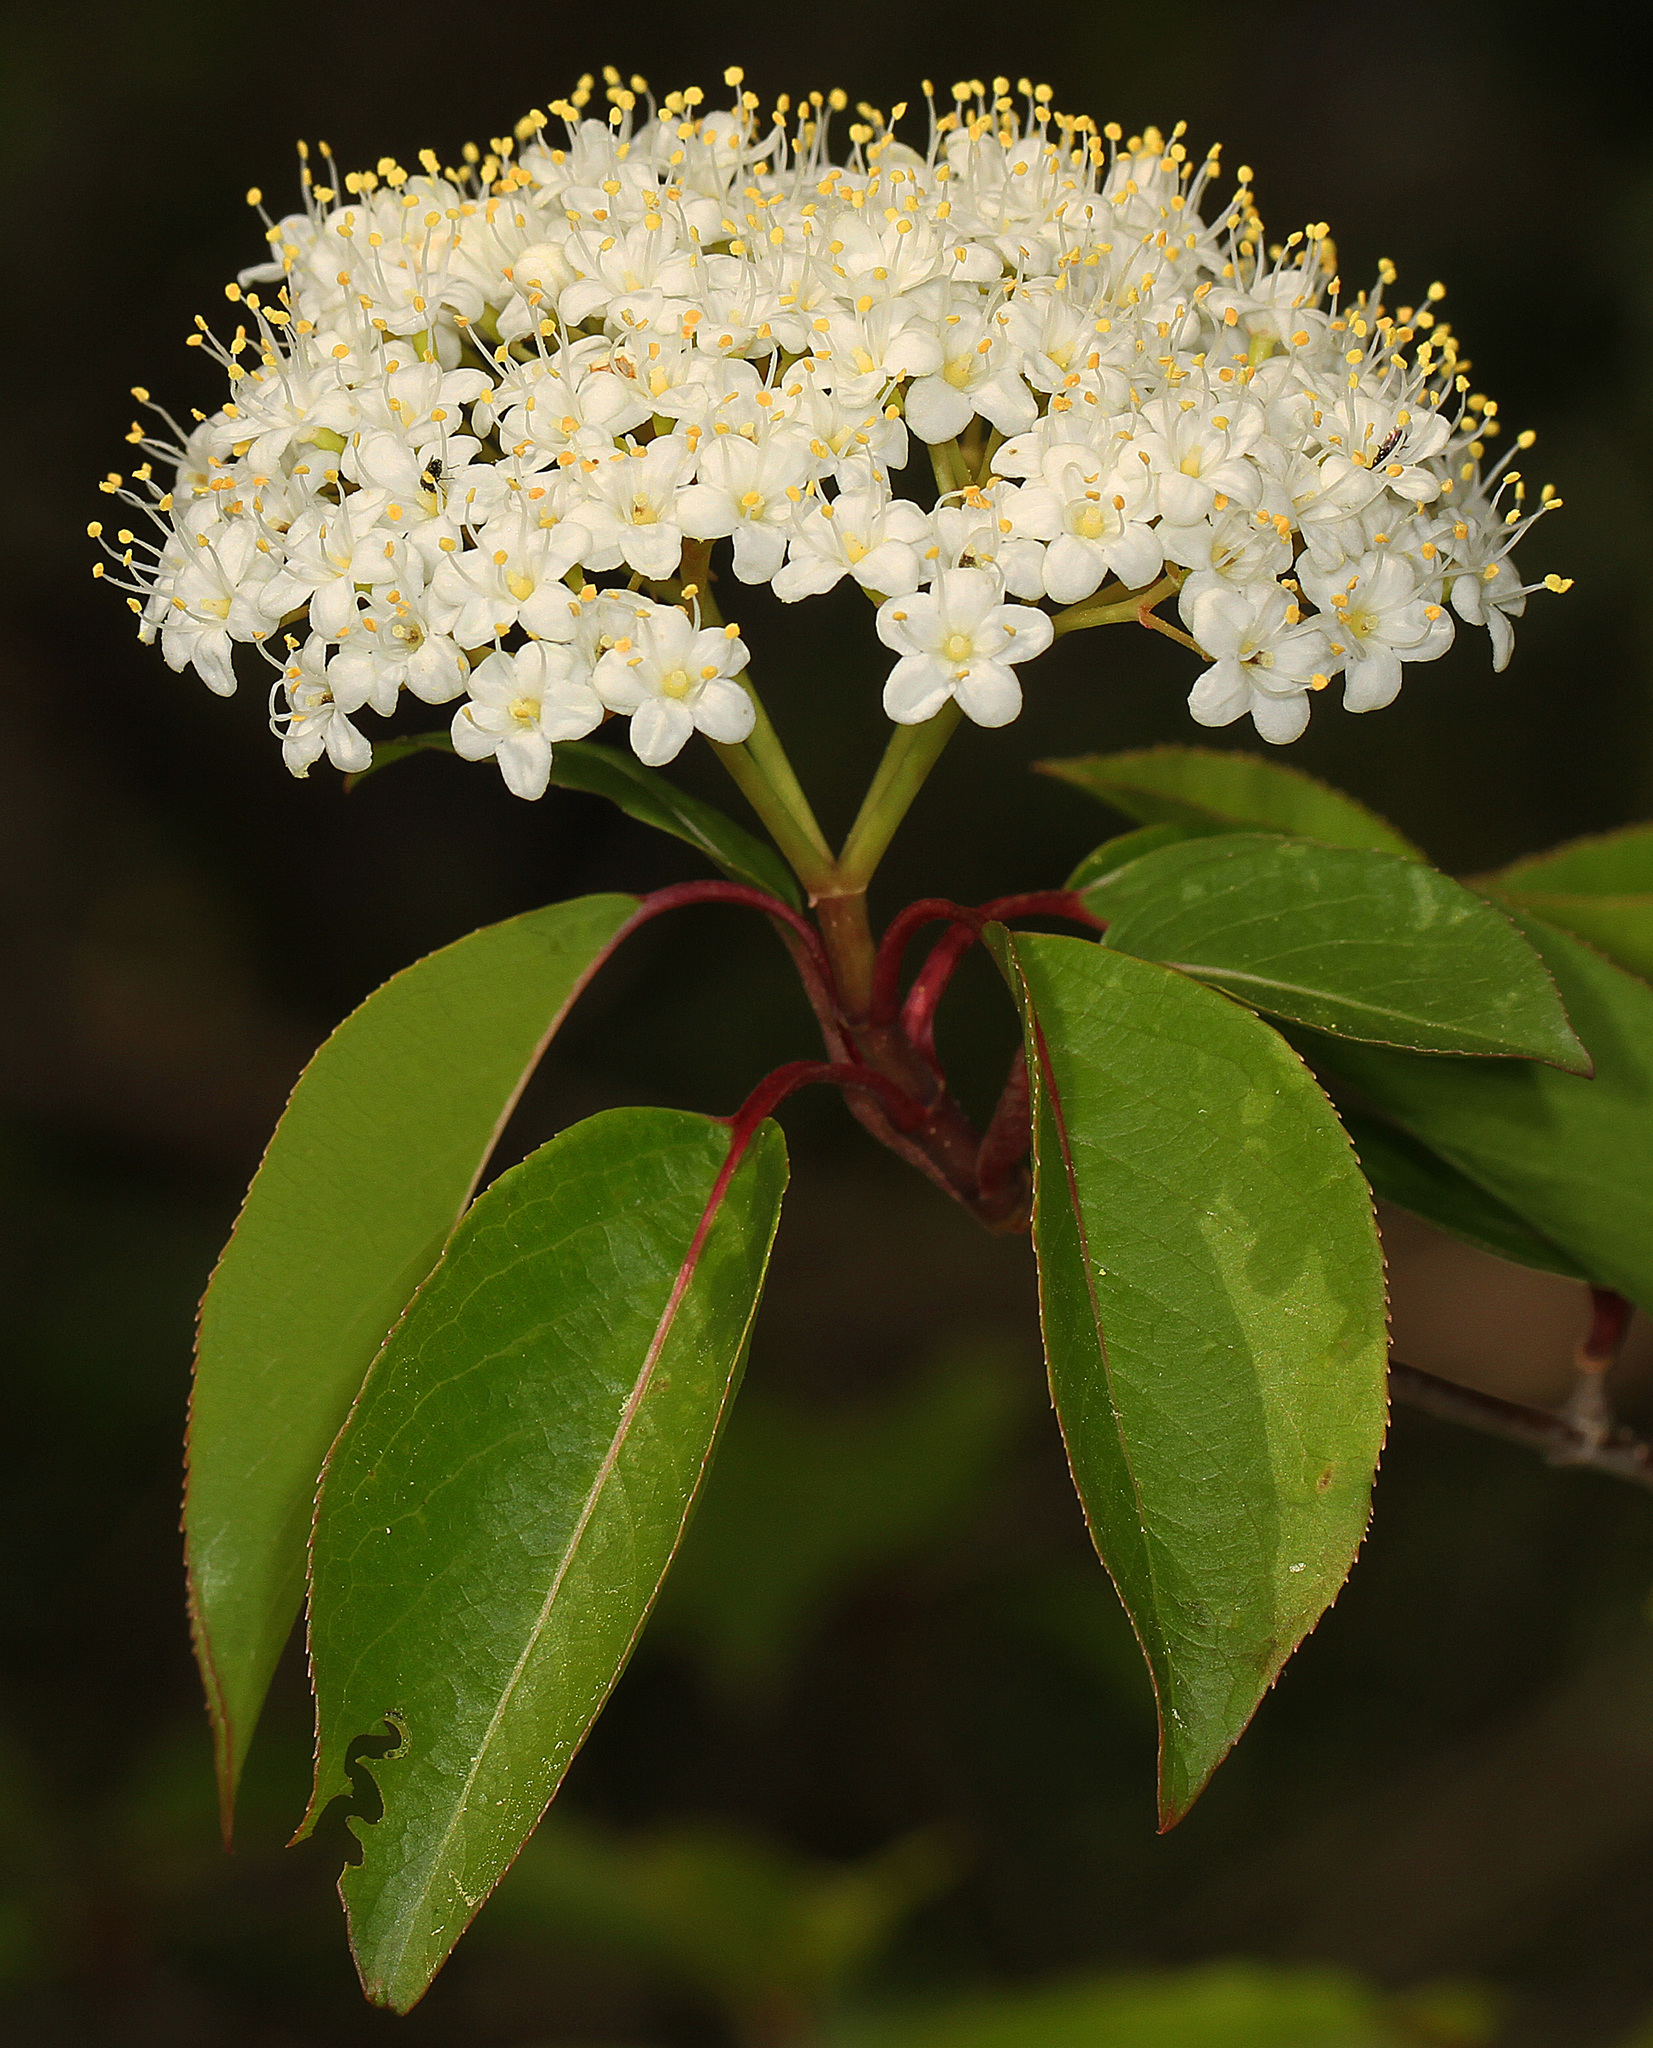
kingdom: Plantae
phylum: Tracheophyta
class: Magnoliopsida
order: Dipsacales
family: Viburnaceae
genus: Viburnum
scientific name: Viburnum prunifolium
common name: Black haw
